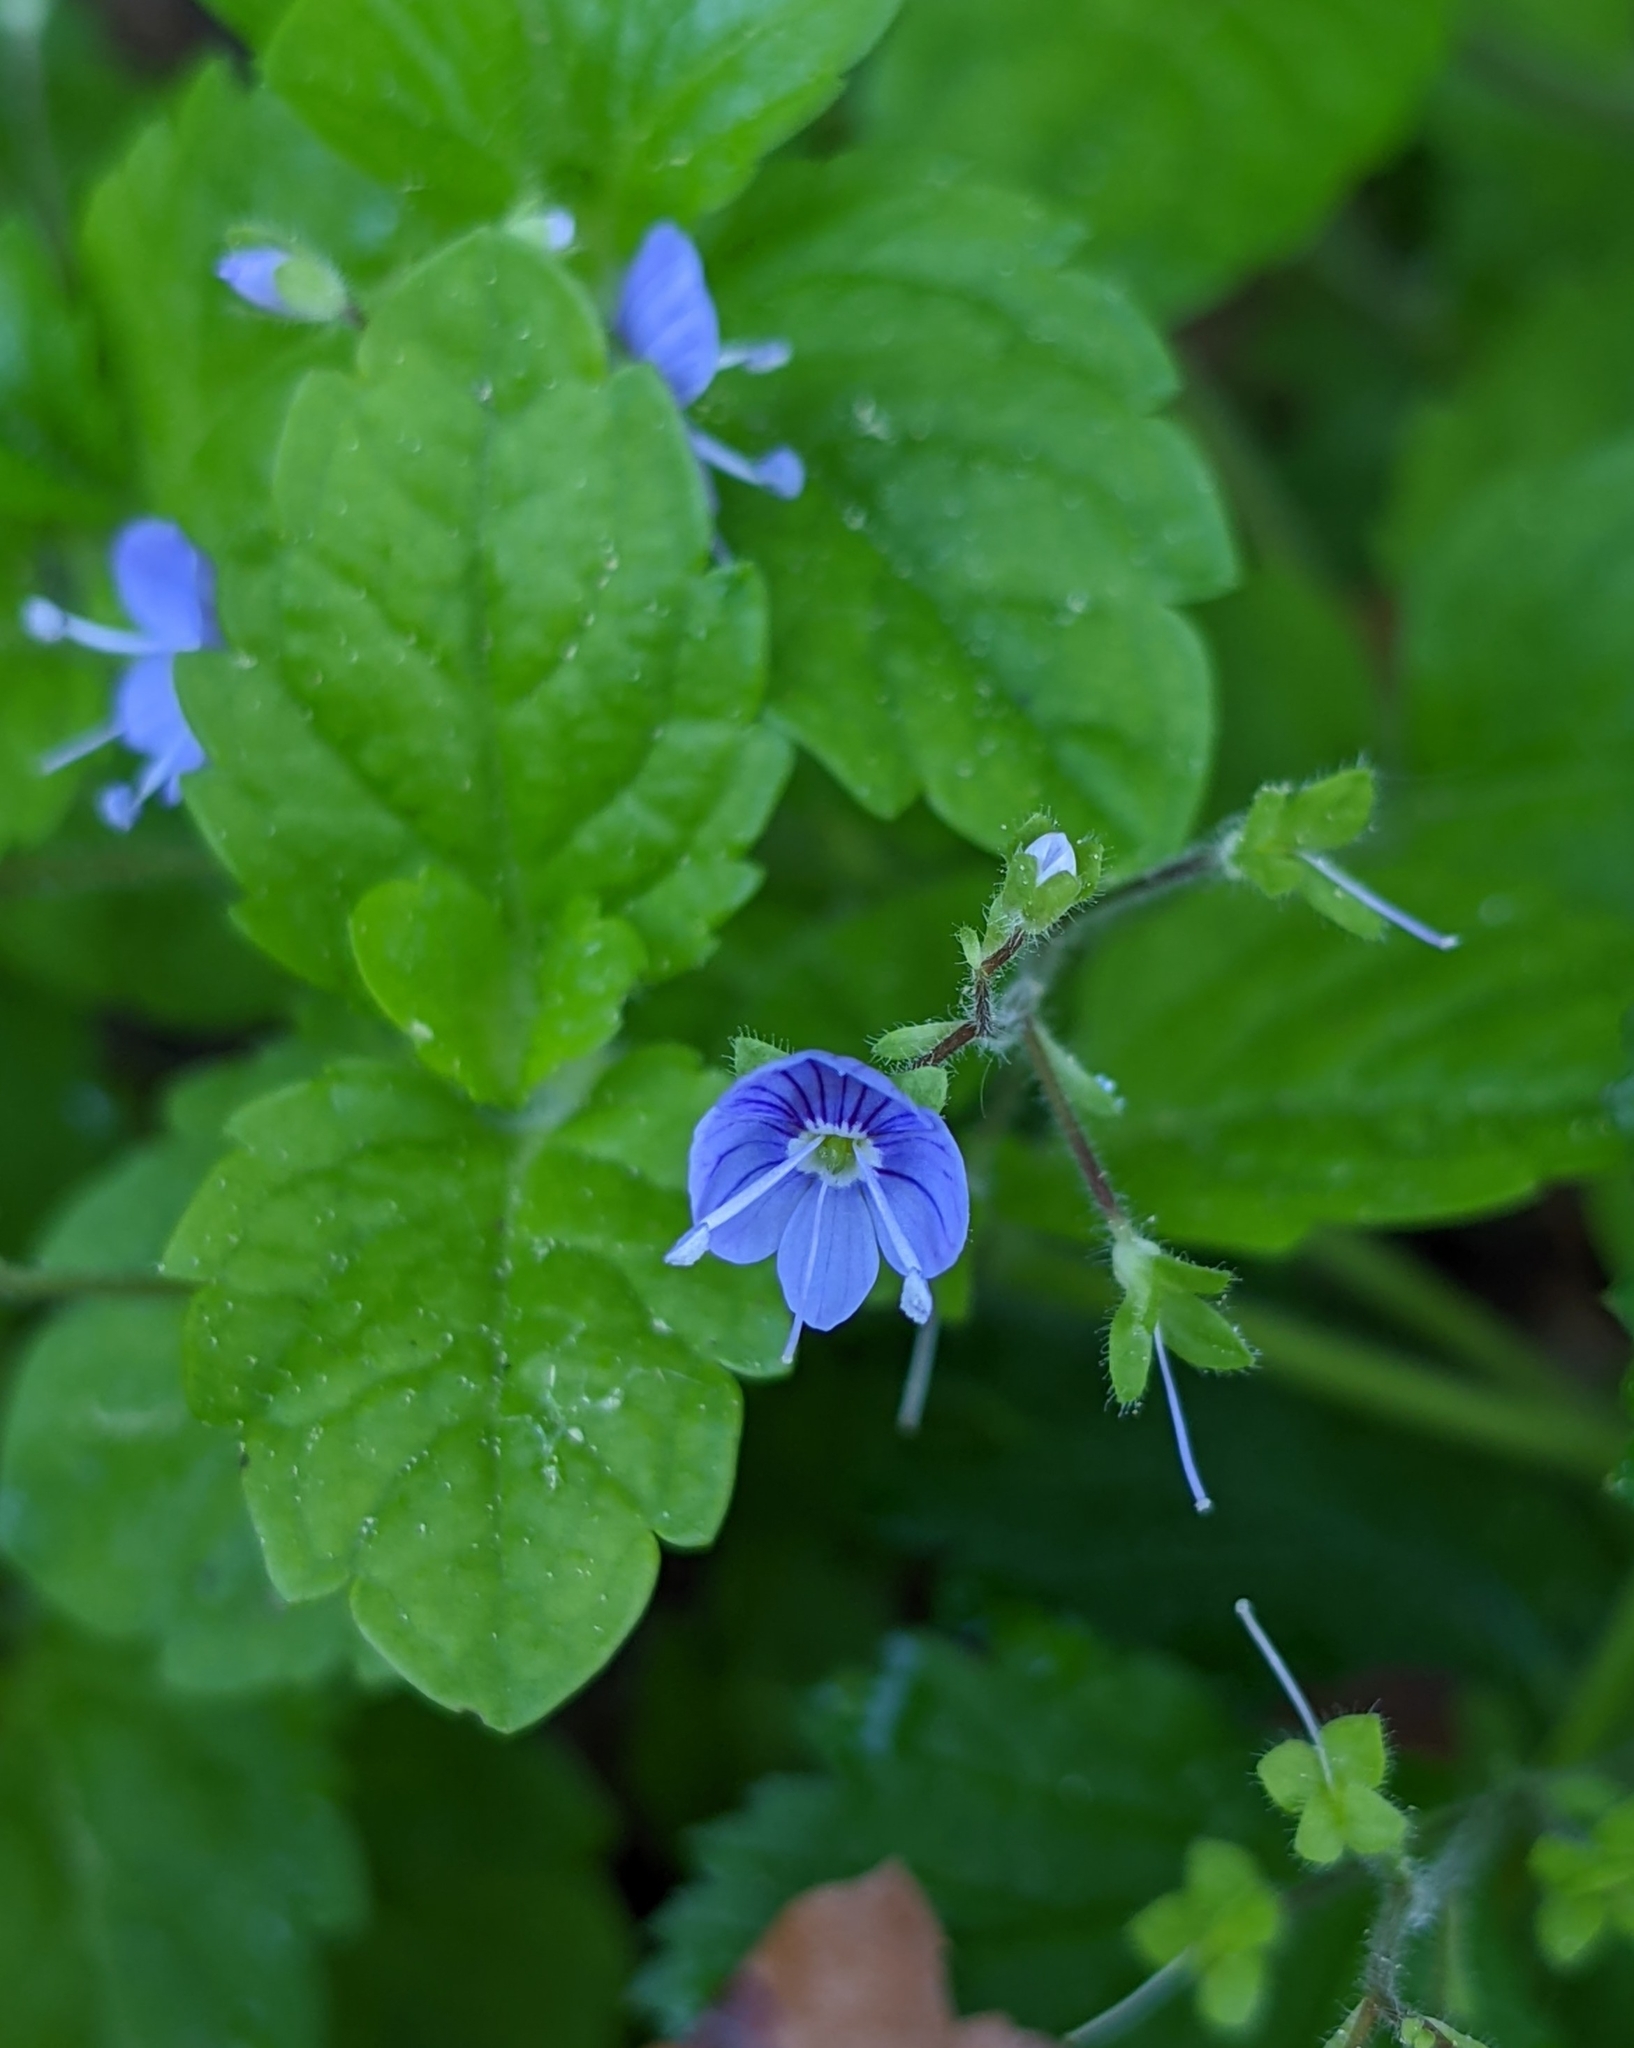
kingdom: Plantae
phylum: Tracheophyta
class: Magnoliopsida
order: Lamiales
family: Plantaginaceae
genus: Veronica
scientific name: Veronica chamaedrys
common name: Germander speedwell
